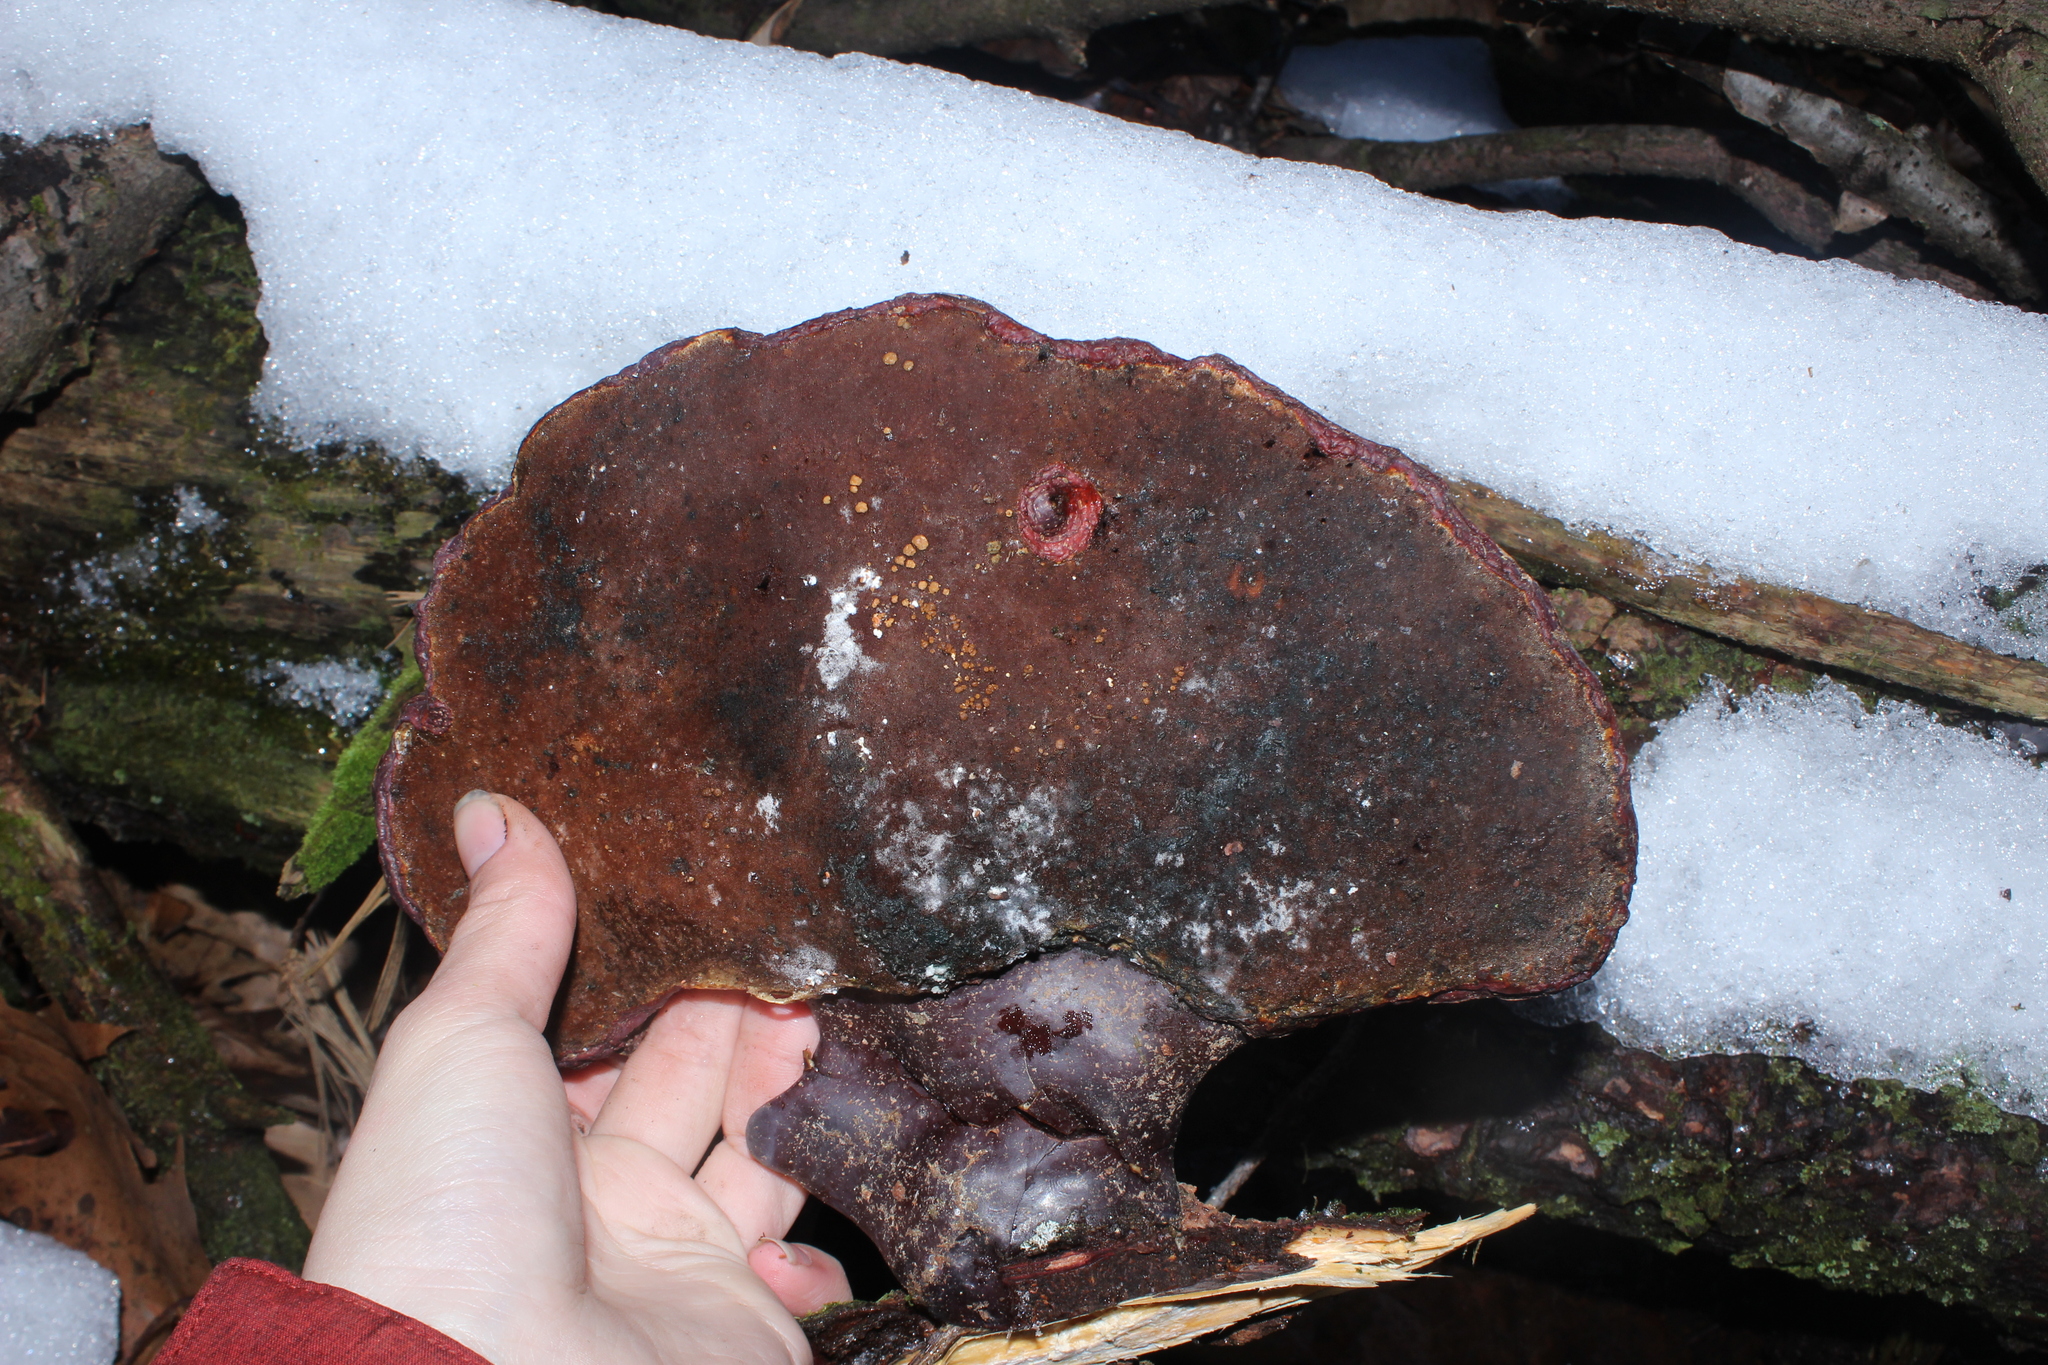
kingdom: Fungi
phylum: Basidiomycota
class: Agaricomycetes
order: Polyporales
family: Polyporaceae
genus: Ganoderma
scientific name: Ganoderma tsugae
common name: Hemlock varnish shelf
